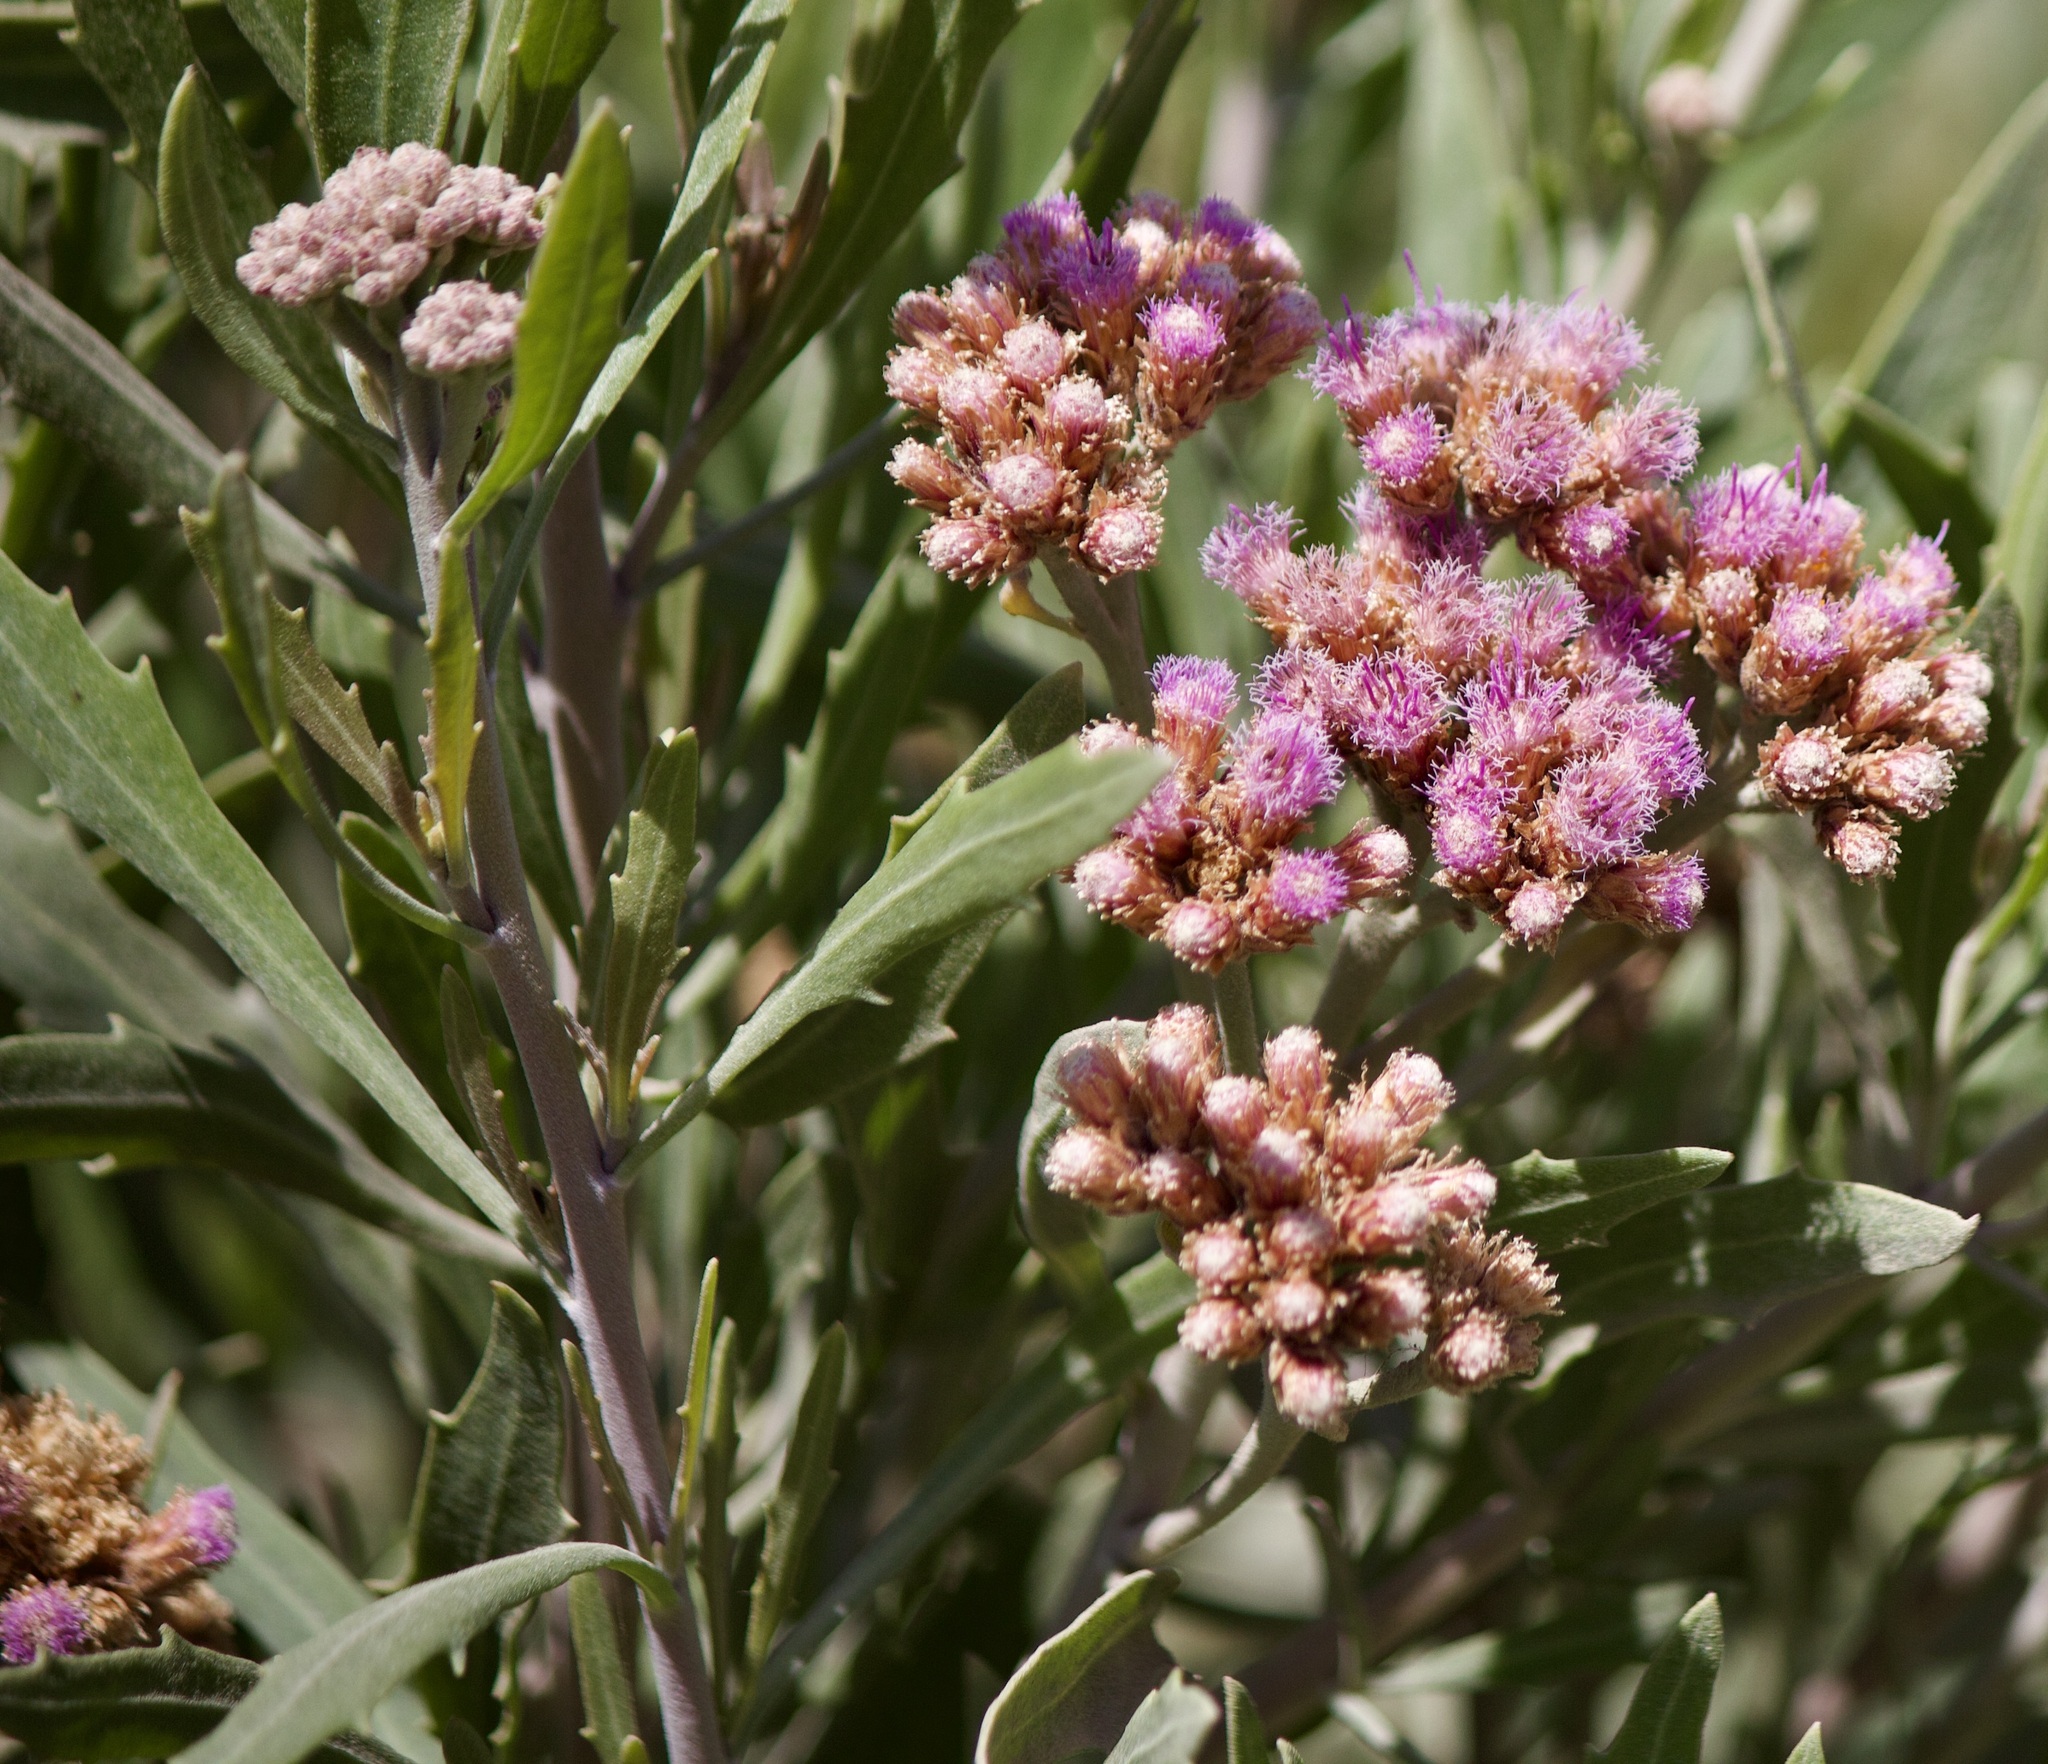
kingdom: Plantae
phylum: Tracheophyta
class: Magnoliopsida
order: Asterales
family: Asteraceae
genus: Tessaria
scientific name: Tessaria absinthioides
